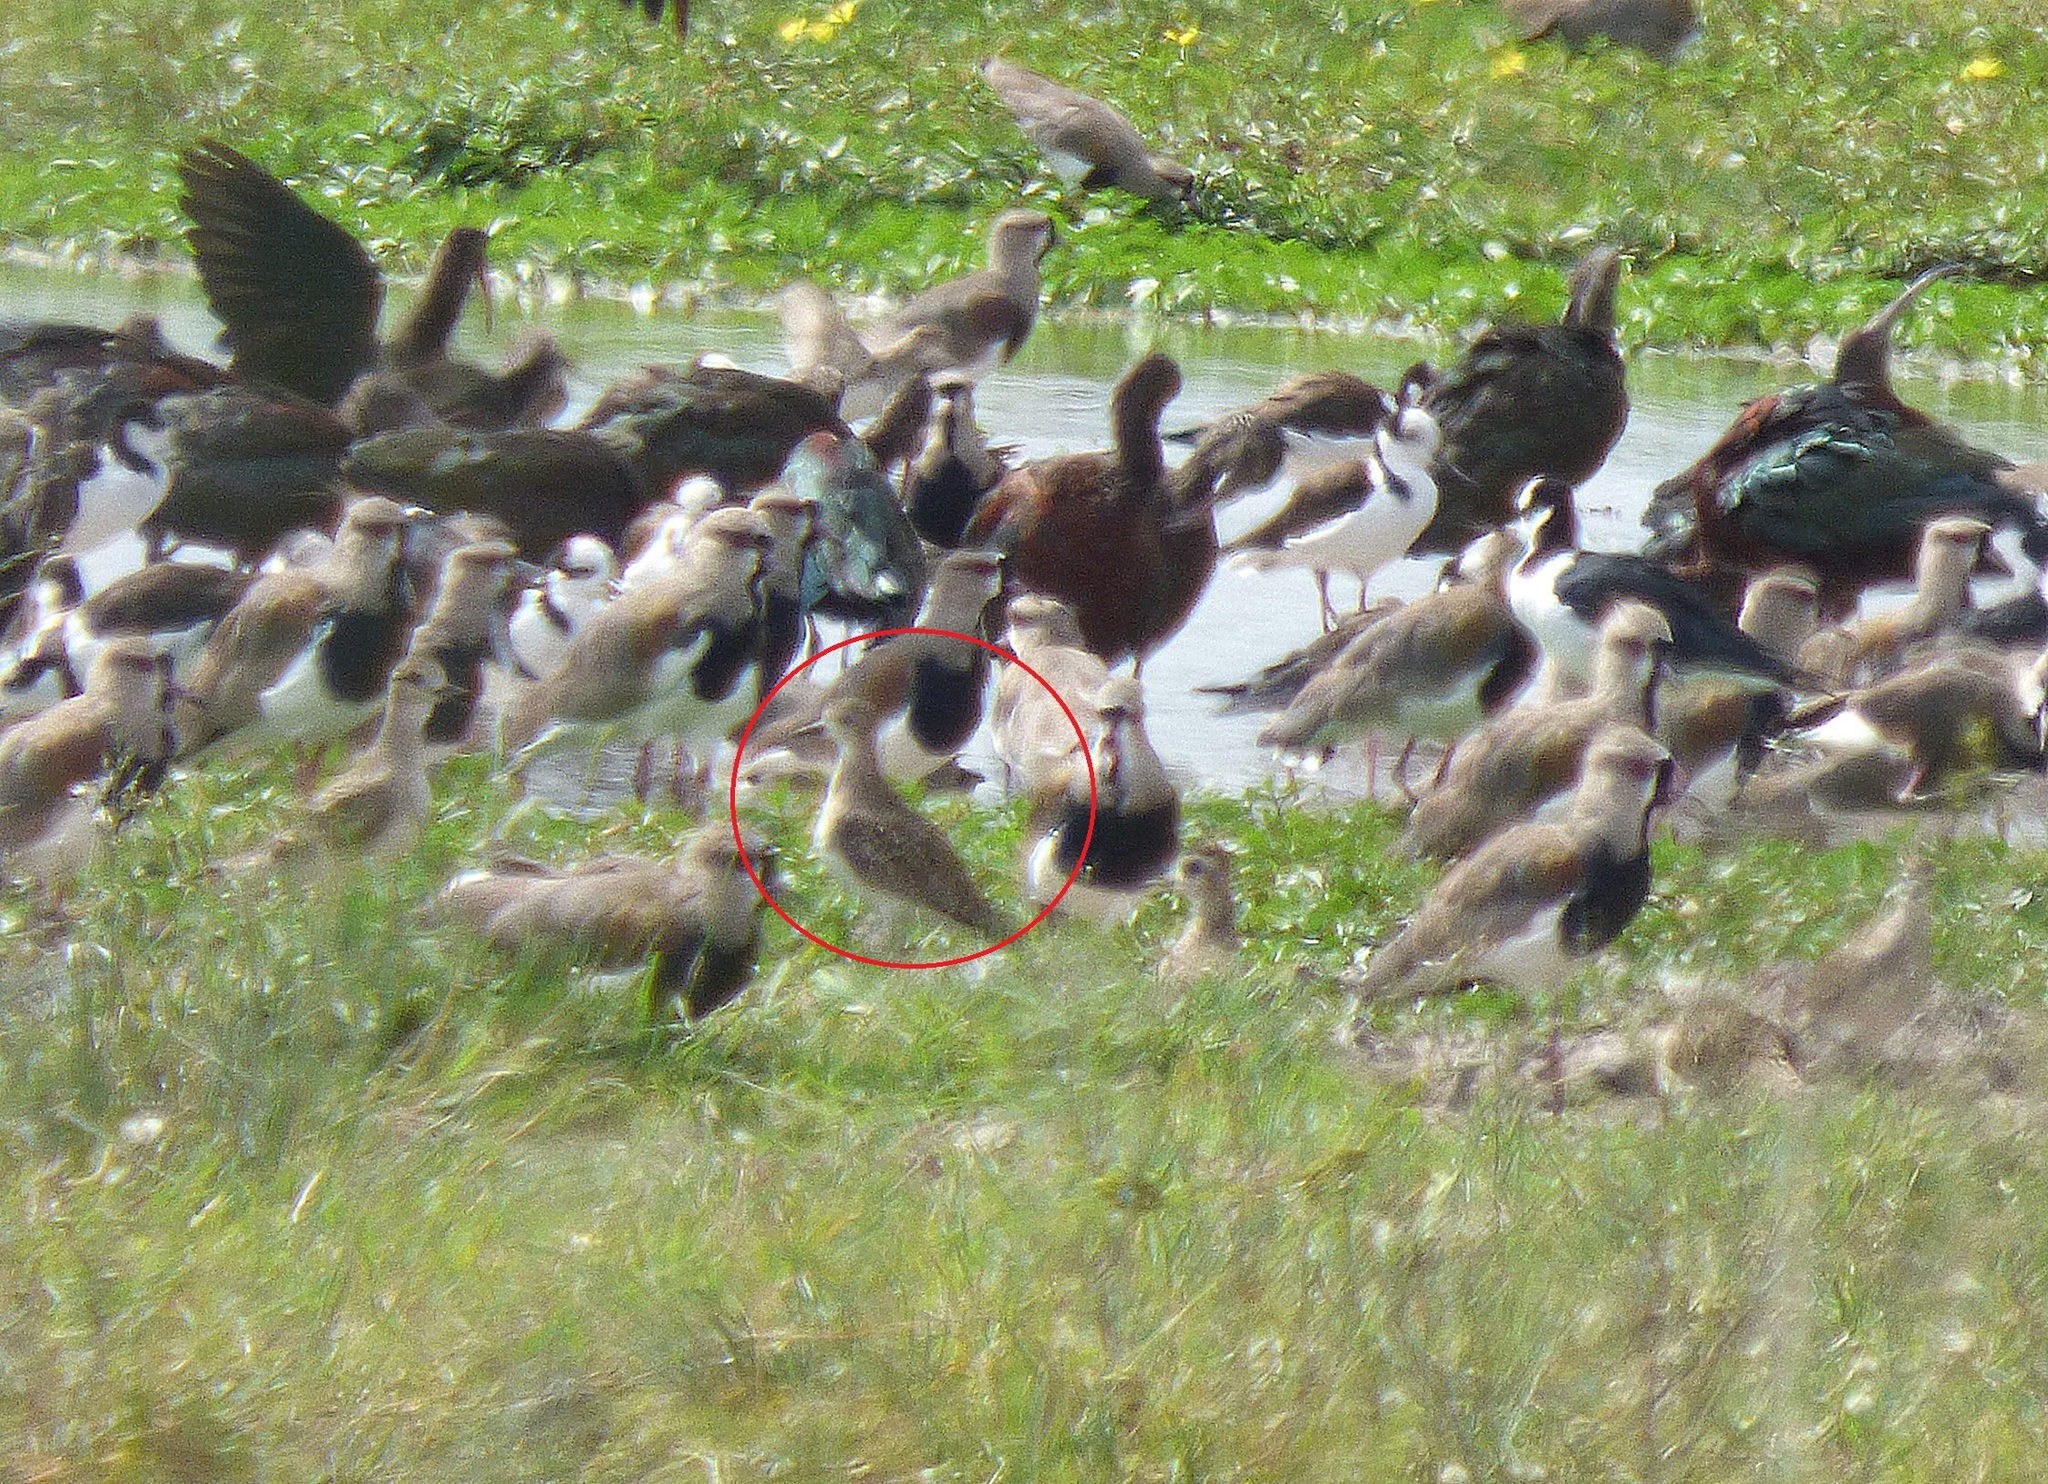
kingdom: Animalia
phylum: Chordata
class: Aves
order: Charadriiformes
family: Charadriidae
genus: Pluvialis
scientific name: Pluvialis dominica
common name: American golden plover
